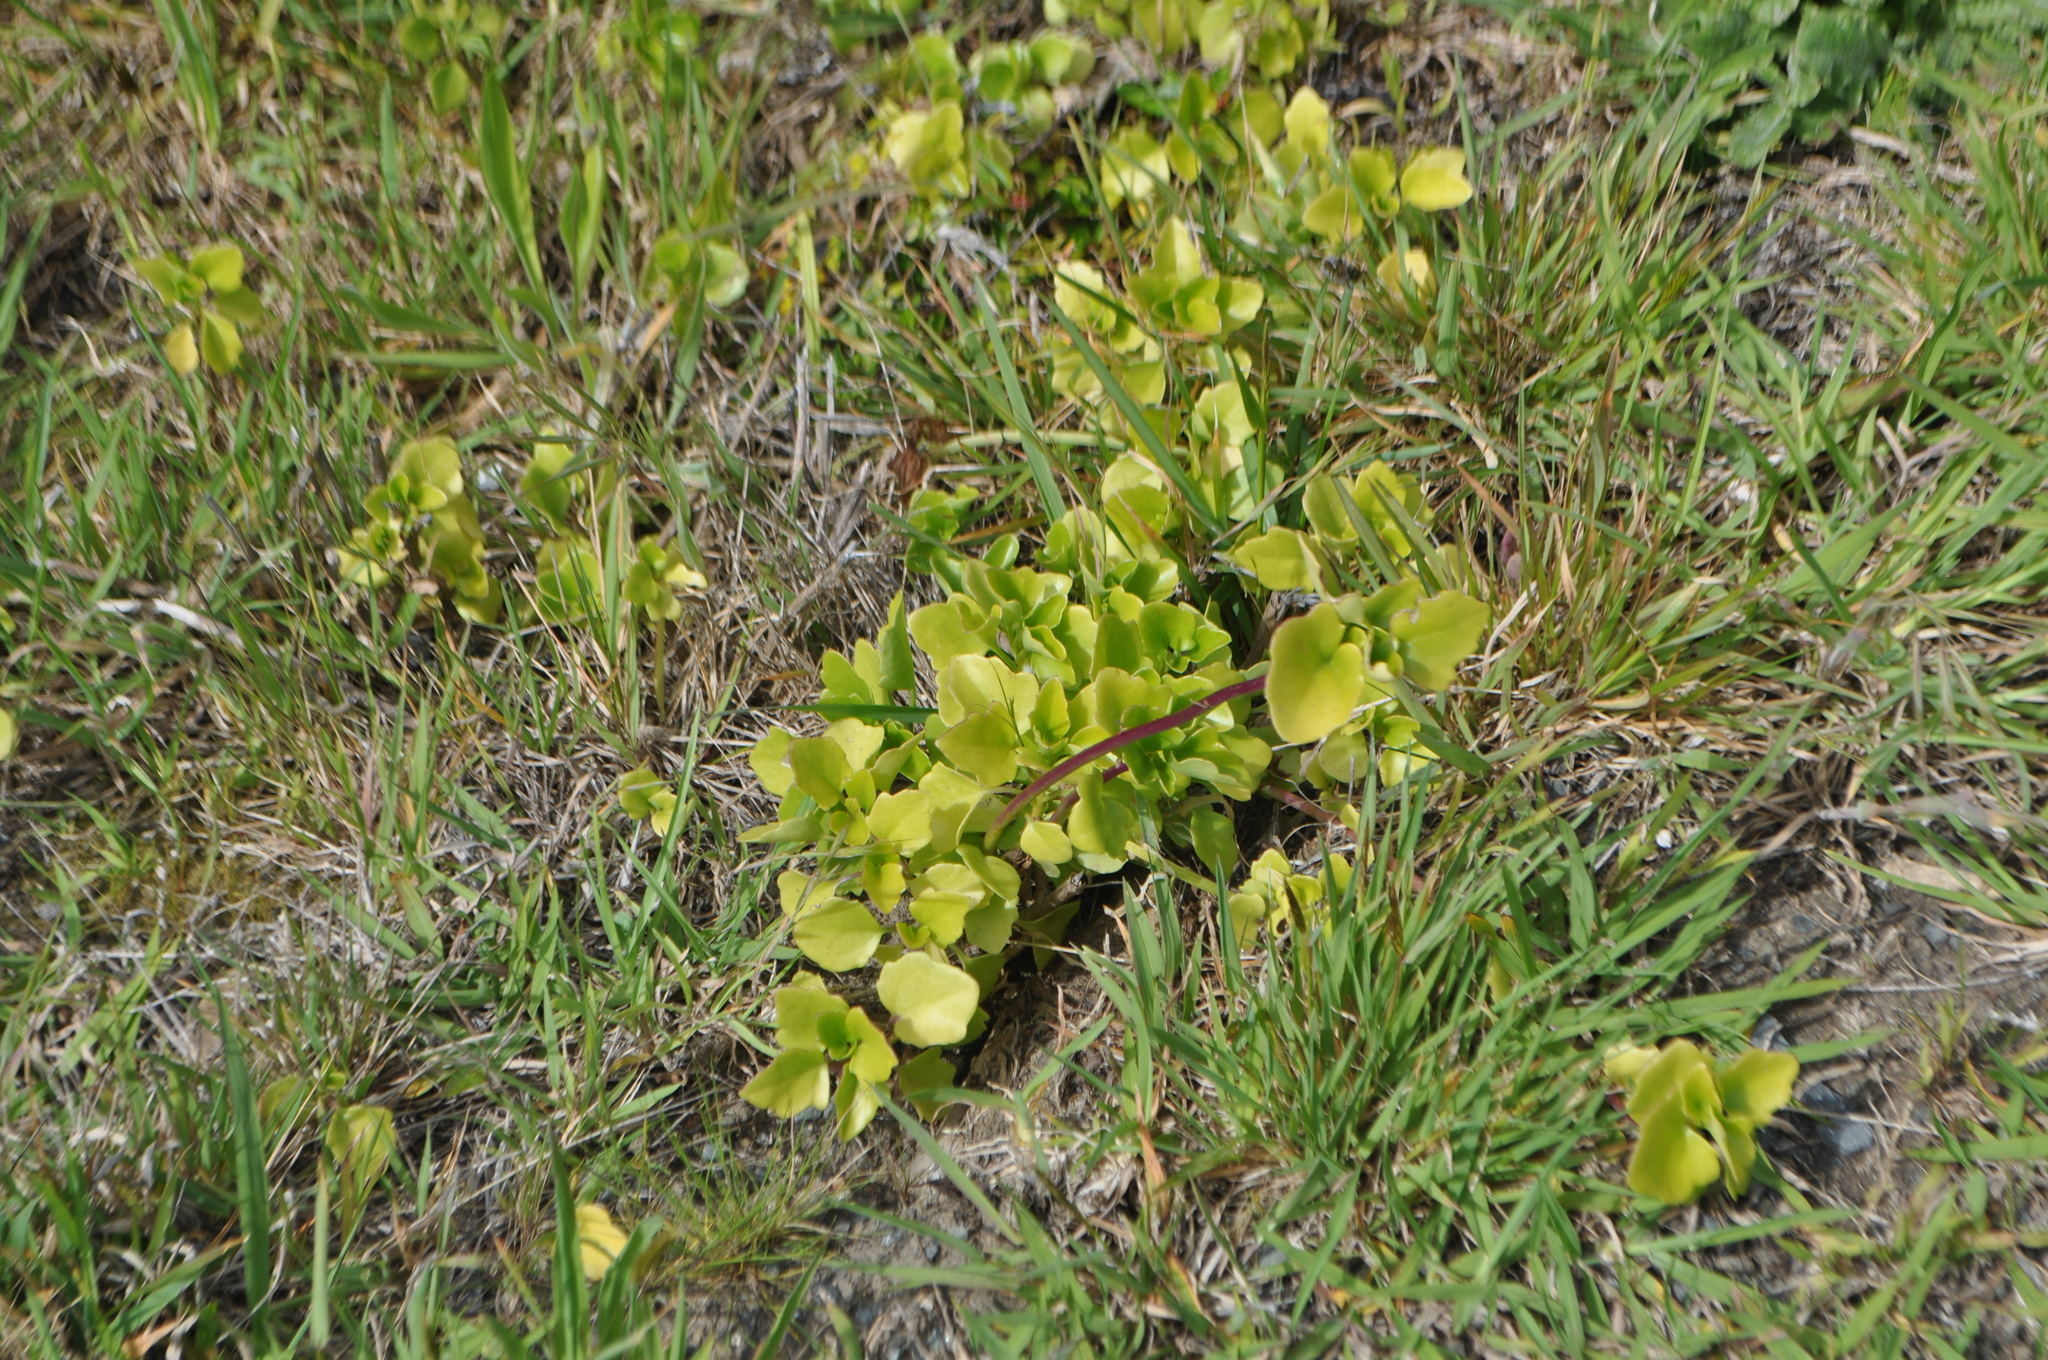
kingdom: Plantae
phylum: Tracheophyta
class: Magnoliopsida
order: Asterales
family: Asteraceae
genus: Senecio
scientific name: Senecio angulatus
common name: Climbing groundsel
